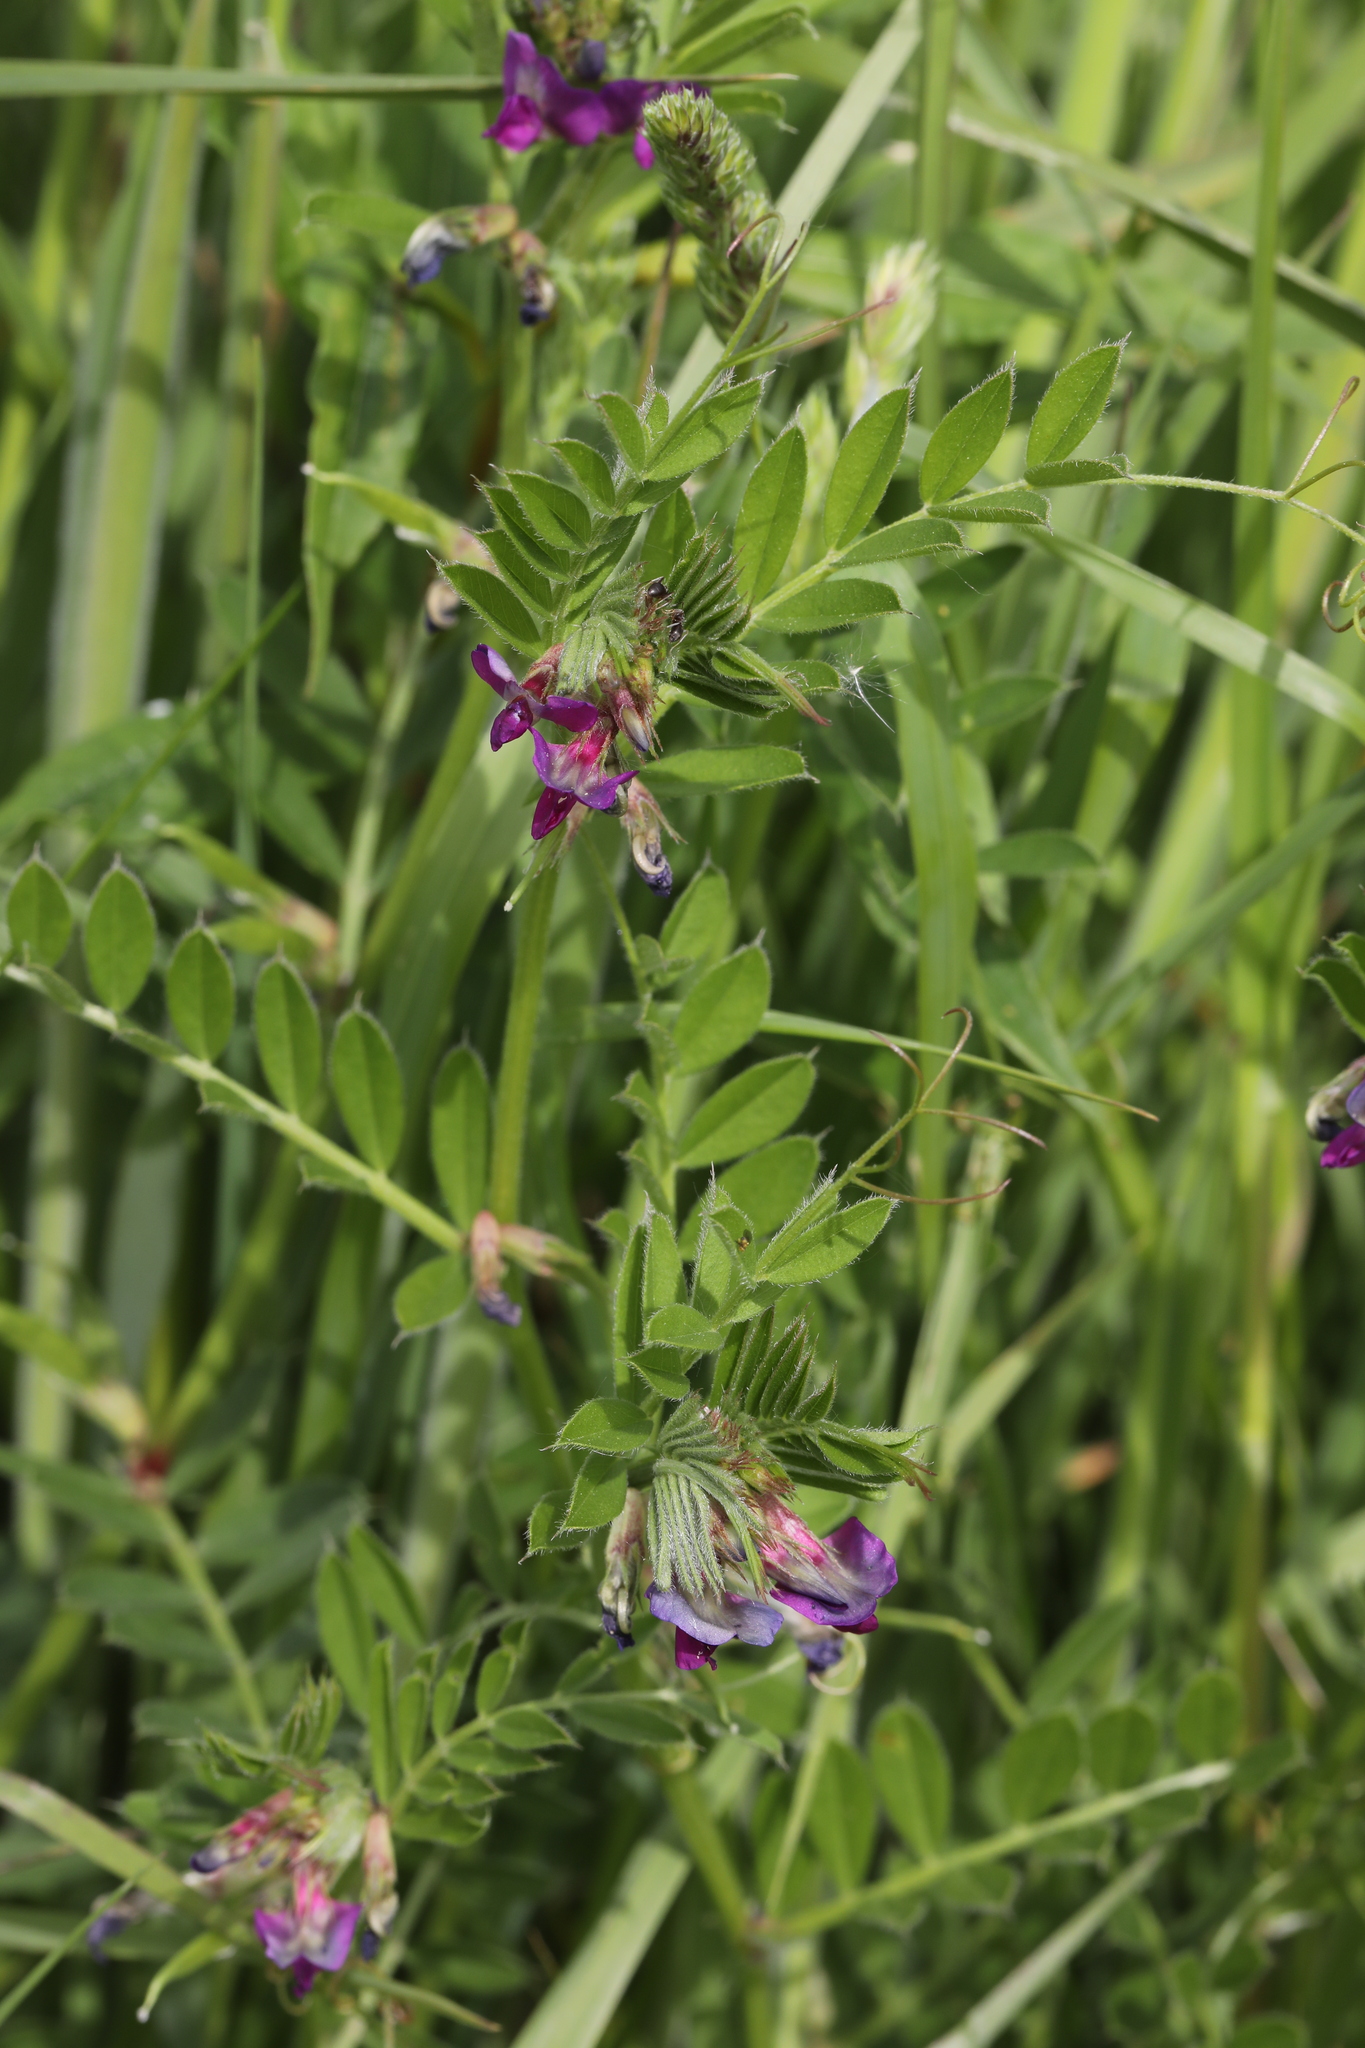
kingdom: Plantae
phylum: Tracheophyta
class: Magnoliopsida
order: Fabales
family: Fabaceae
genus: Vicia
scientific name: Vicia sativa
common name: Garden vetch
